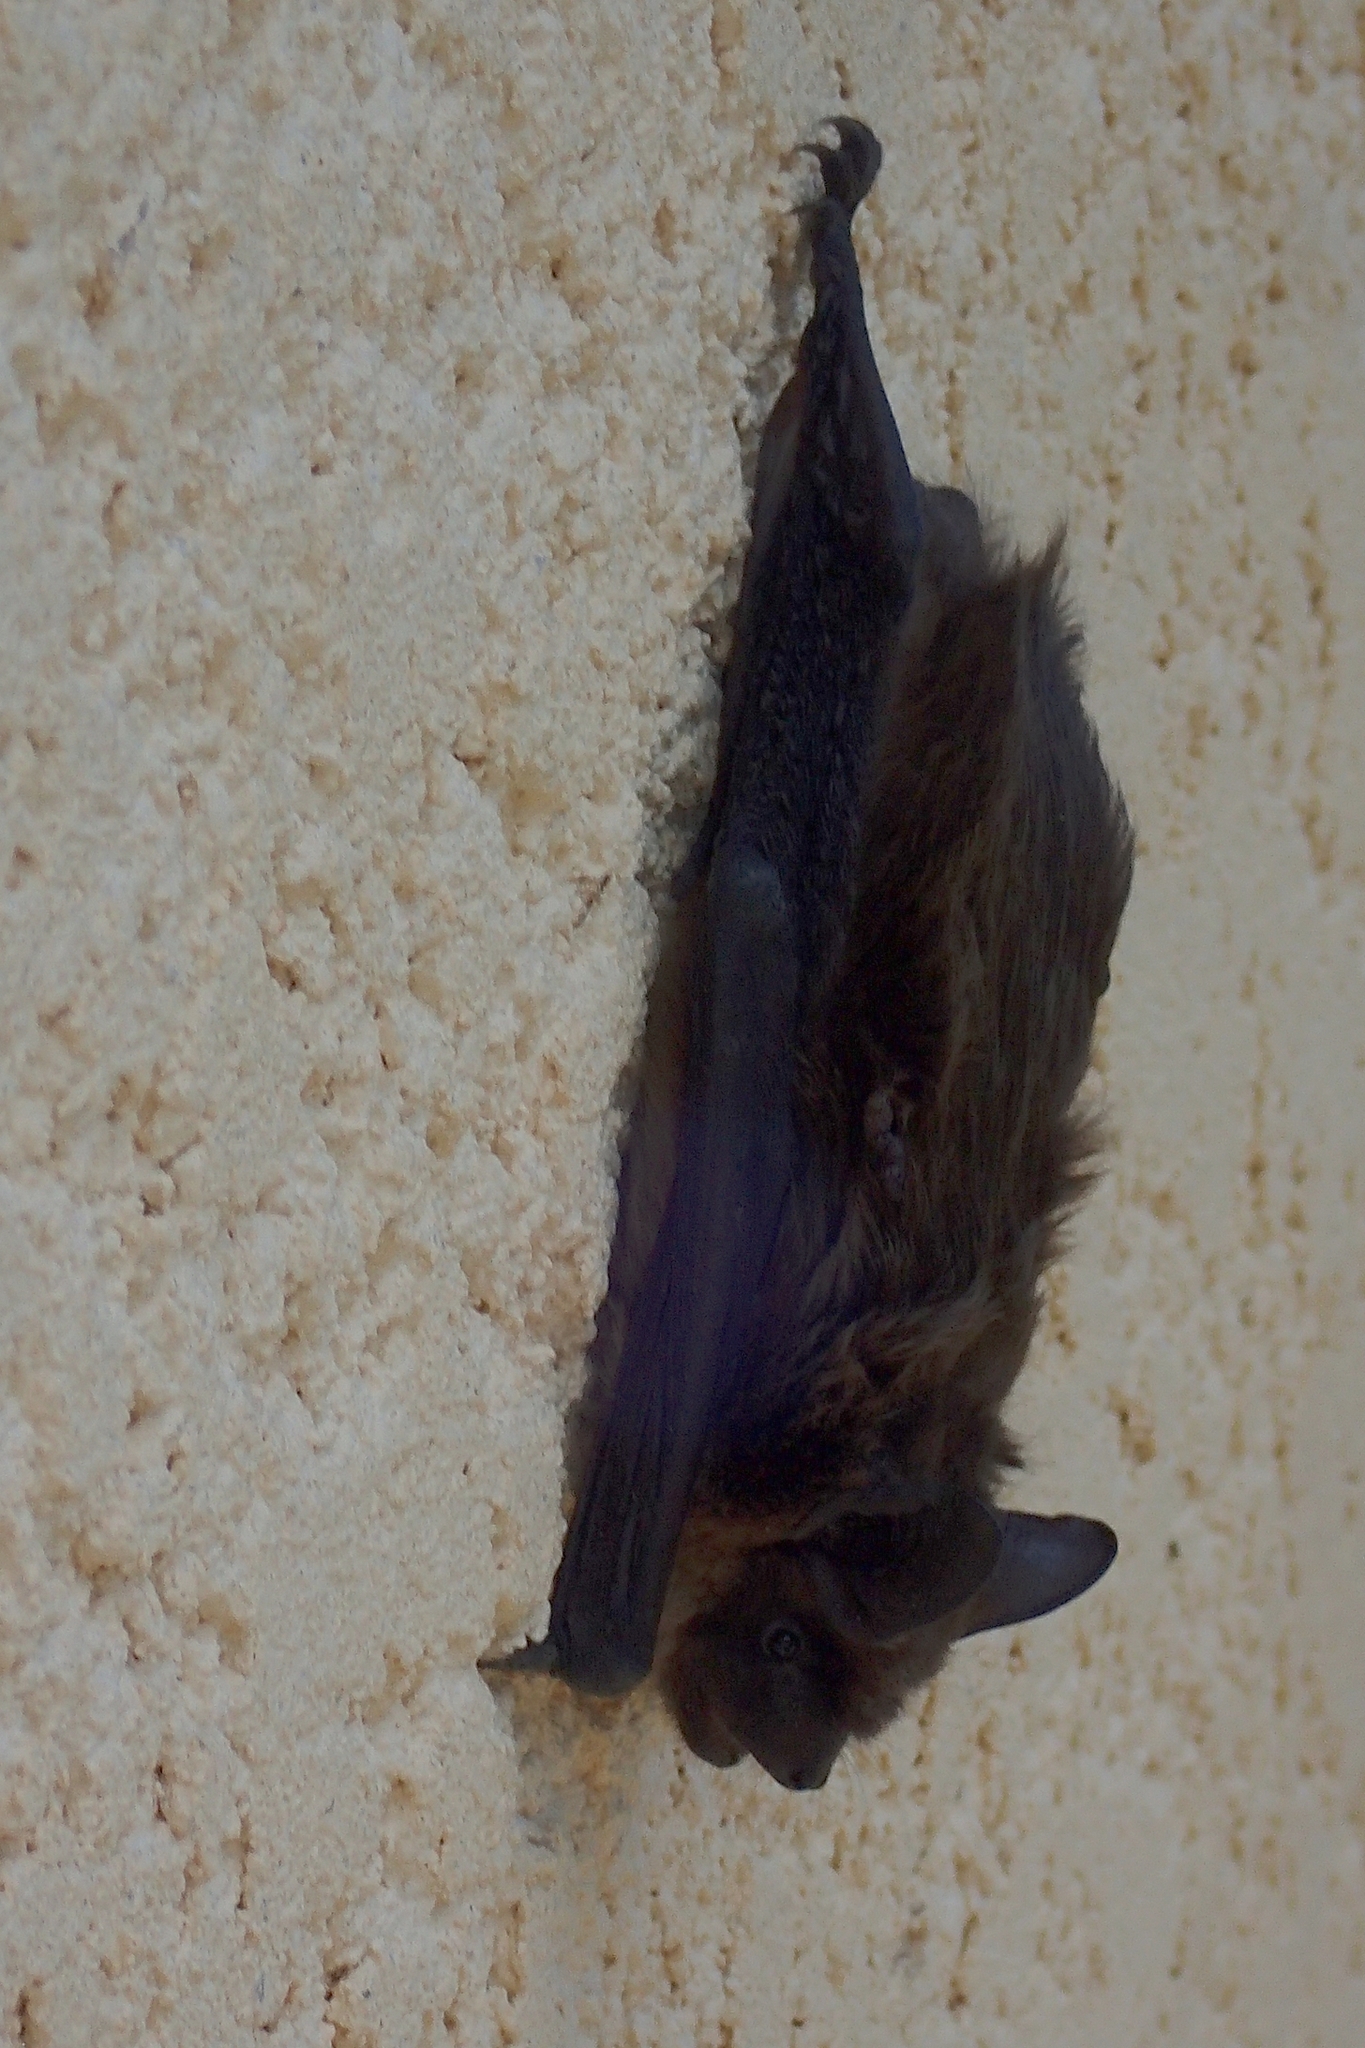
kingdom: Animalia
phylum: Chordata
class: Mammalia
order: Chiroptera
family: Vespertilionidae
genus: Eptesicus
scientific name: Eptesicus serotinus
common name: Serotine
